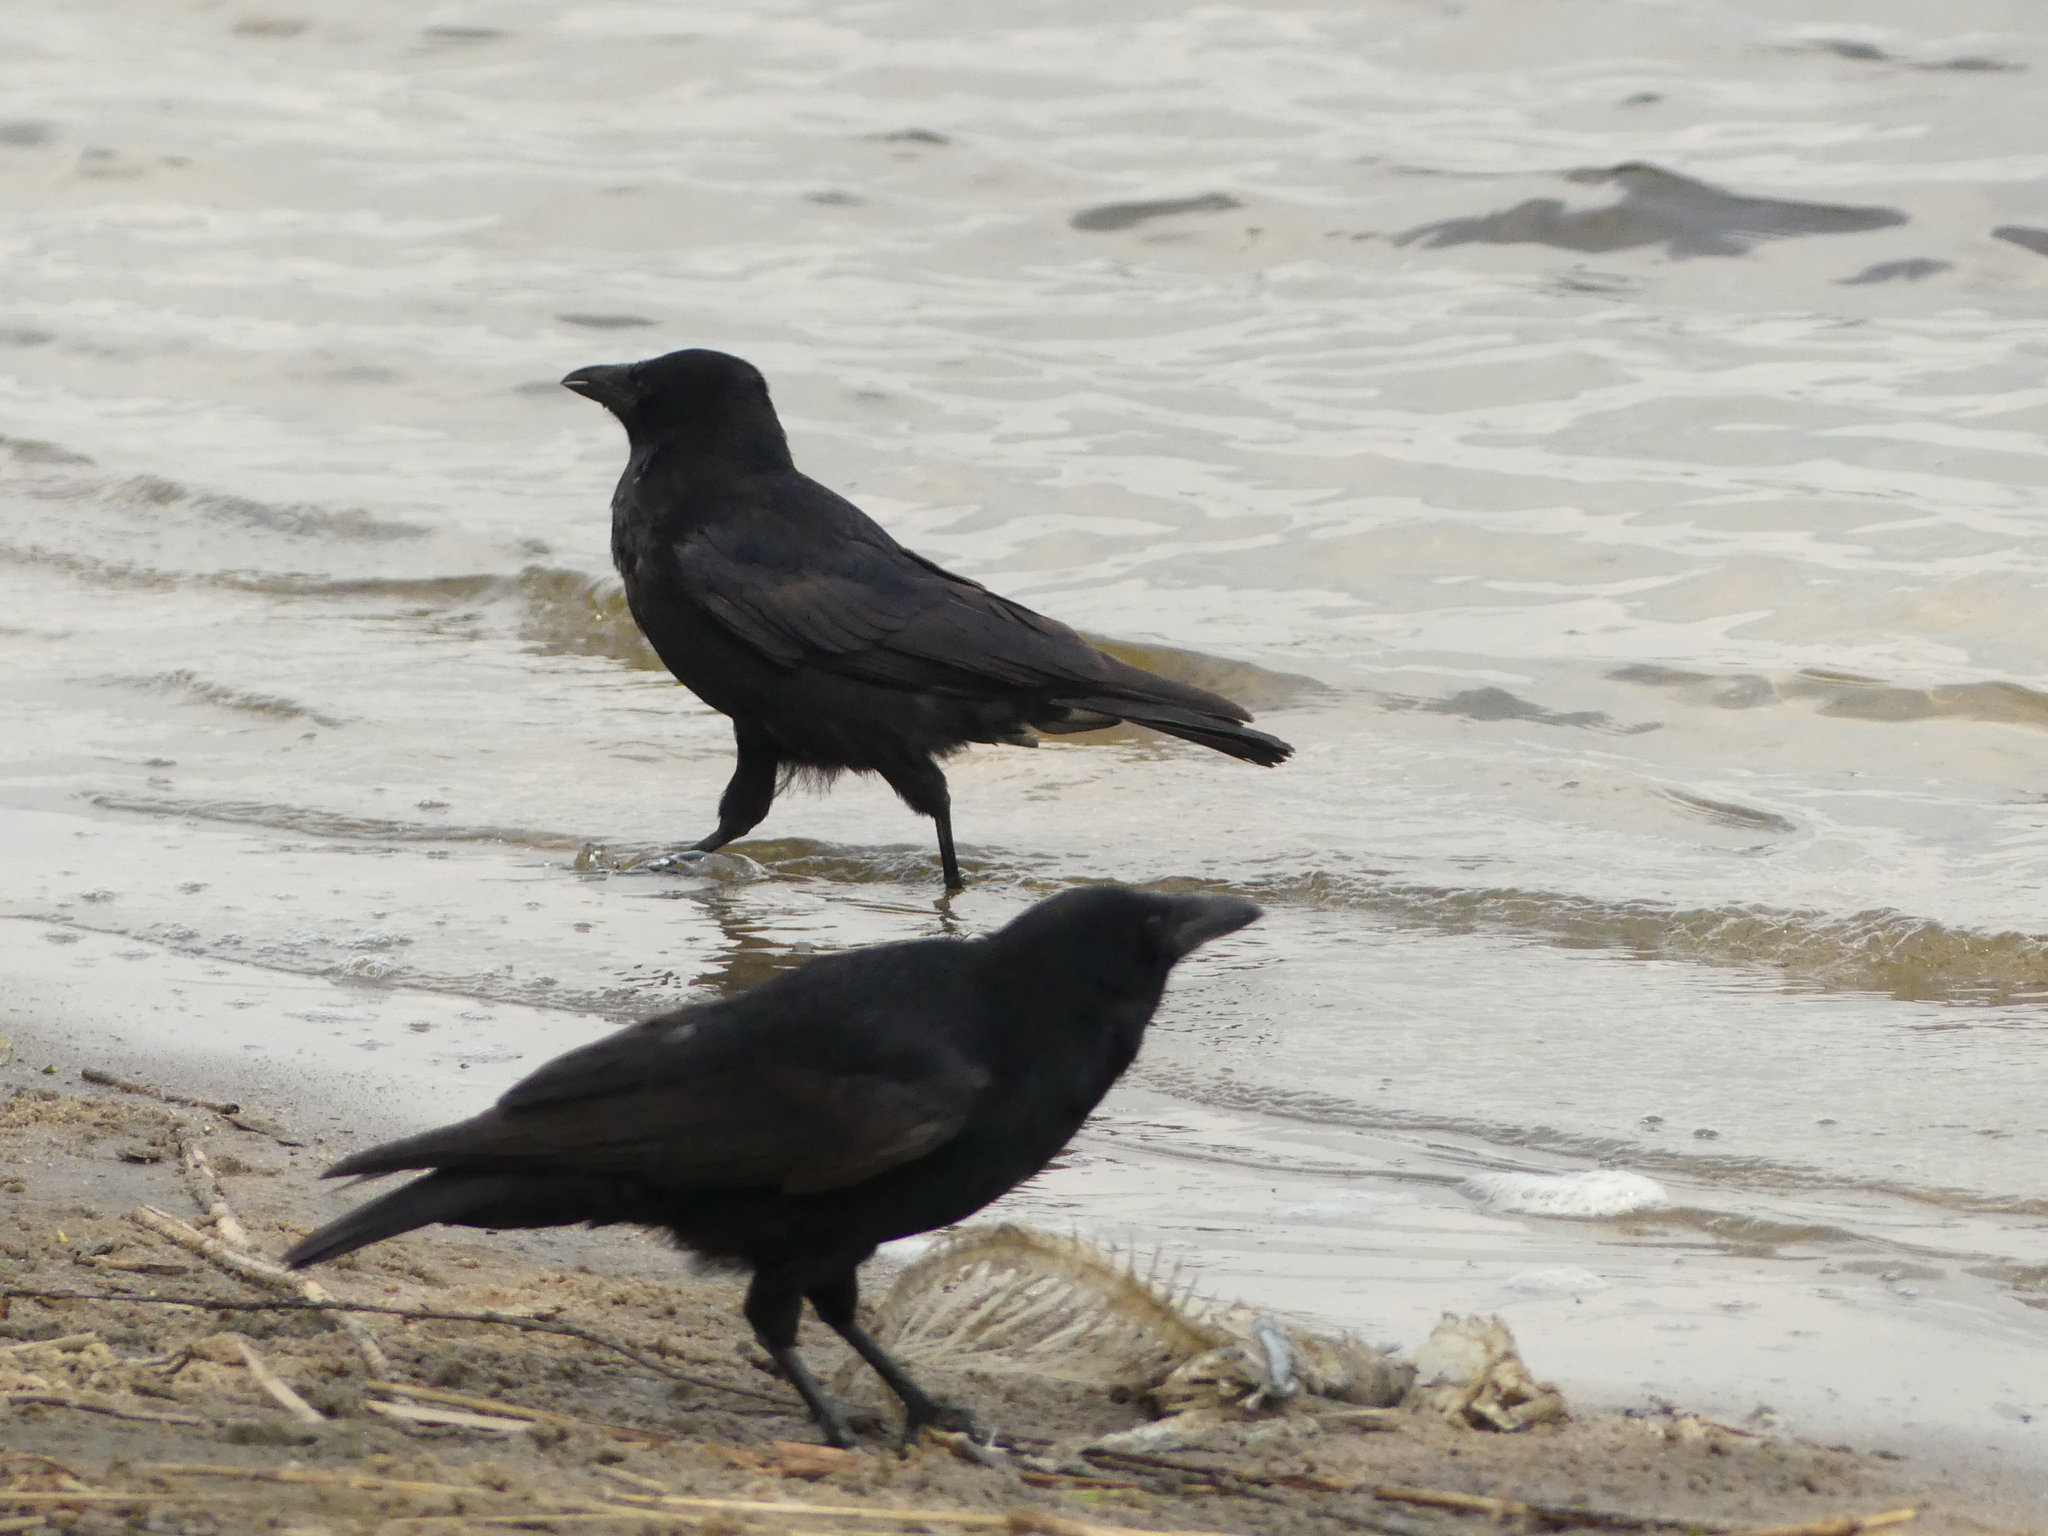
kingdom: Animalia
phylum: Chordata
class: Aves
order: Passeriformes
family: Corvidae
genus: Corvus
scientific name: Corvus corone
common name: Carrion crow
